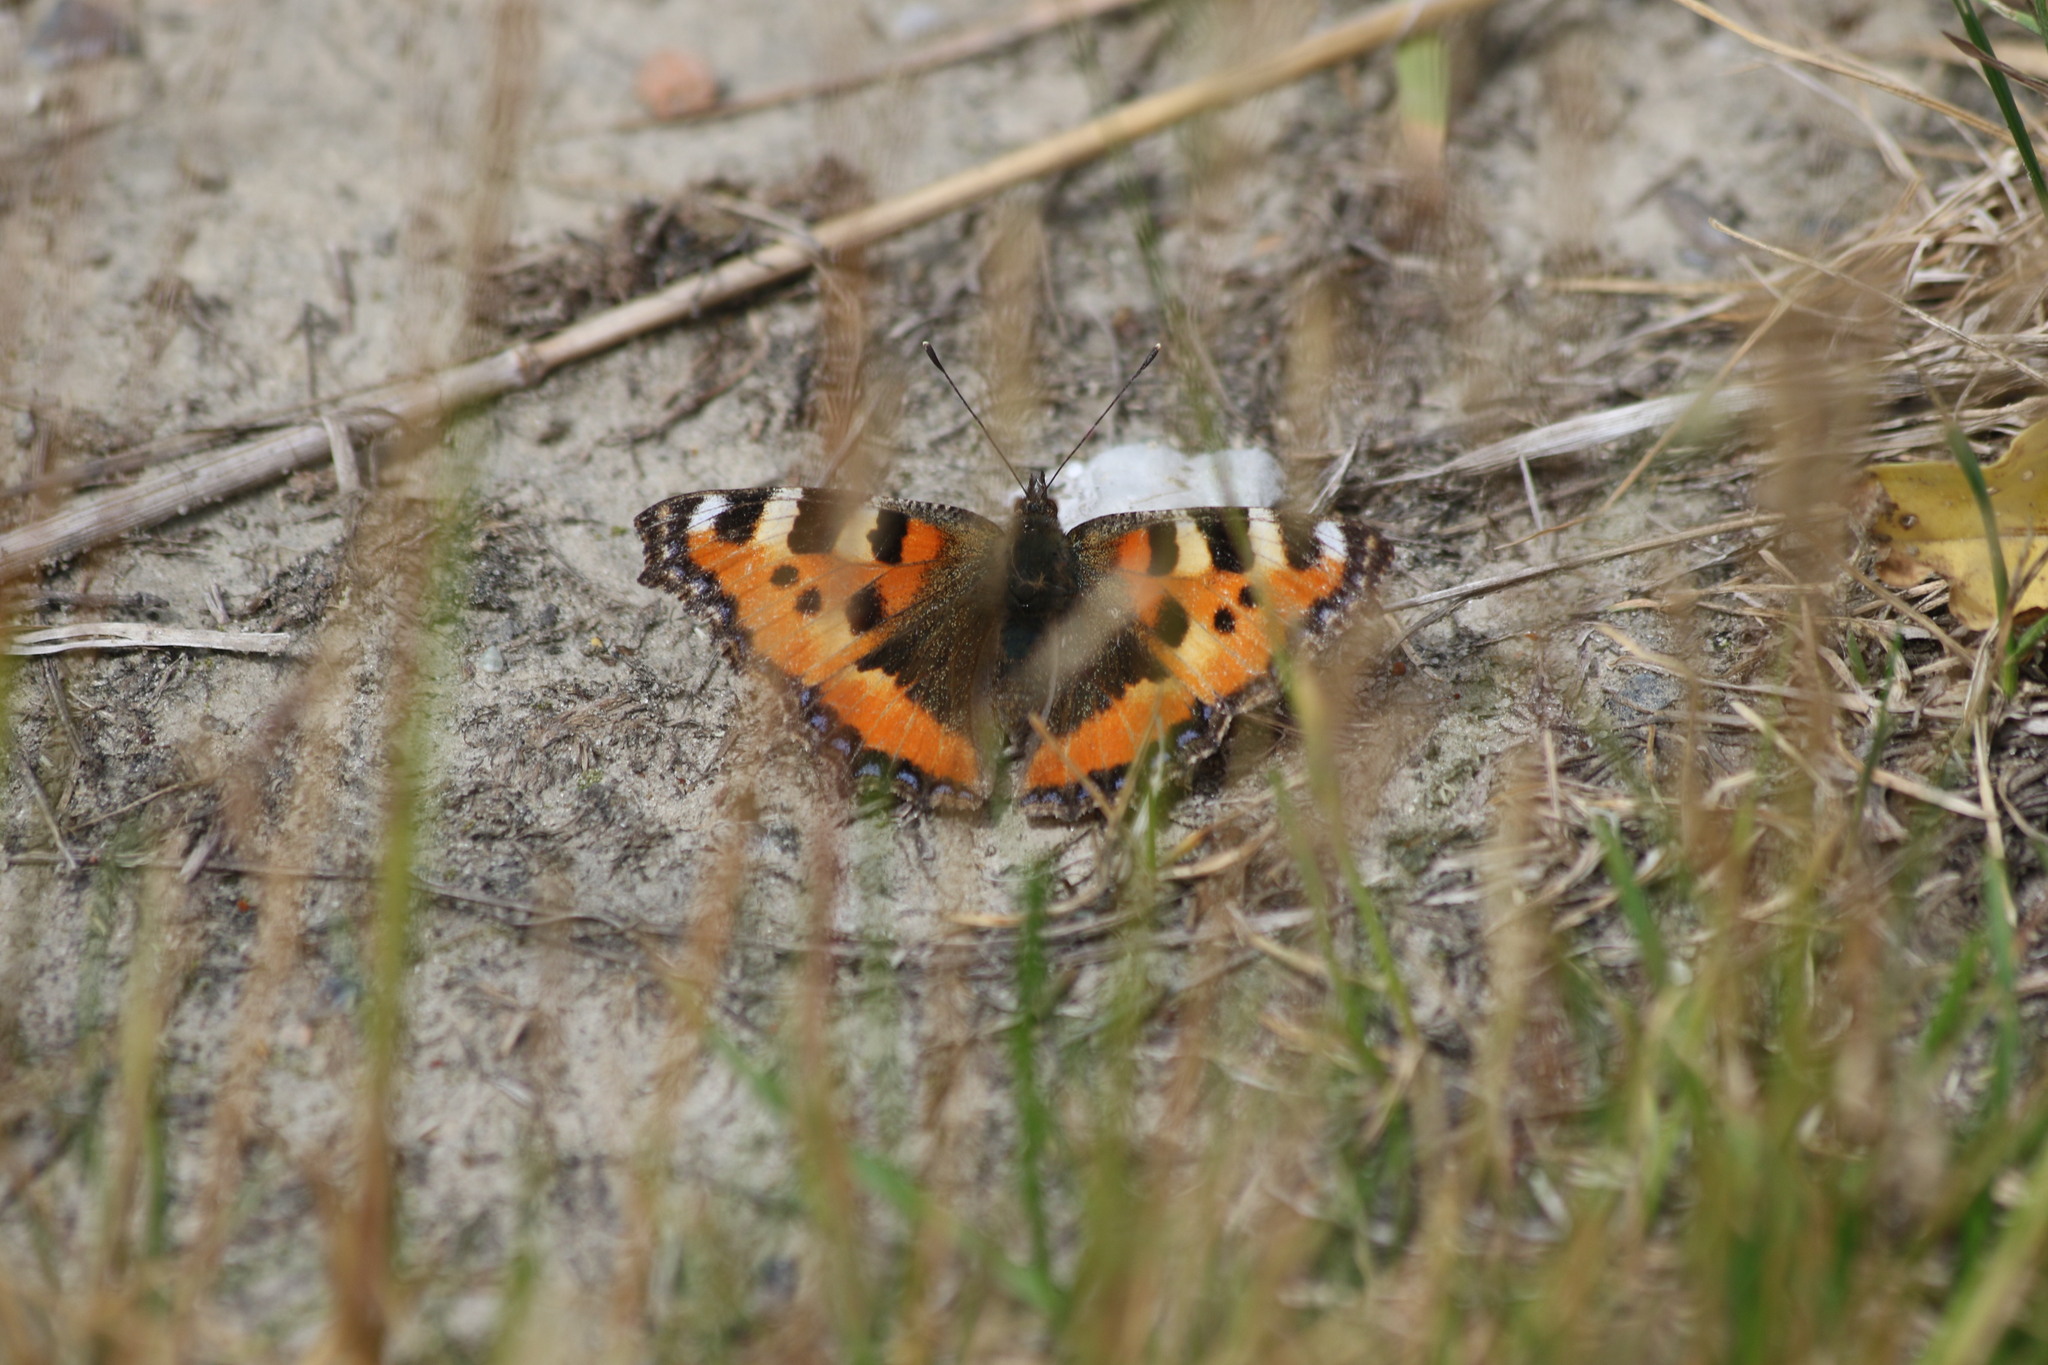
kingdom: Animalia
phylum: Arthropoda
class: Insecta
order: Lepidoptera
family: Nymphalidae
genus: Aglais
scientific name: Aglais urticae
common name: Small tortoiseshell
